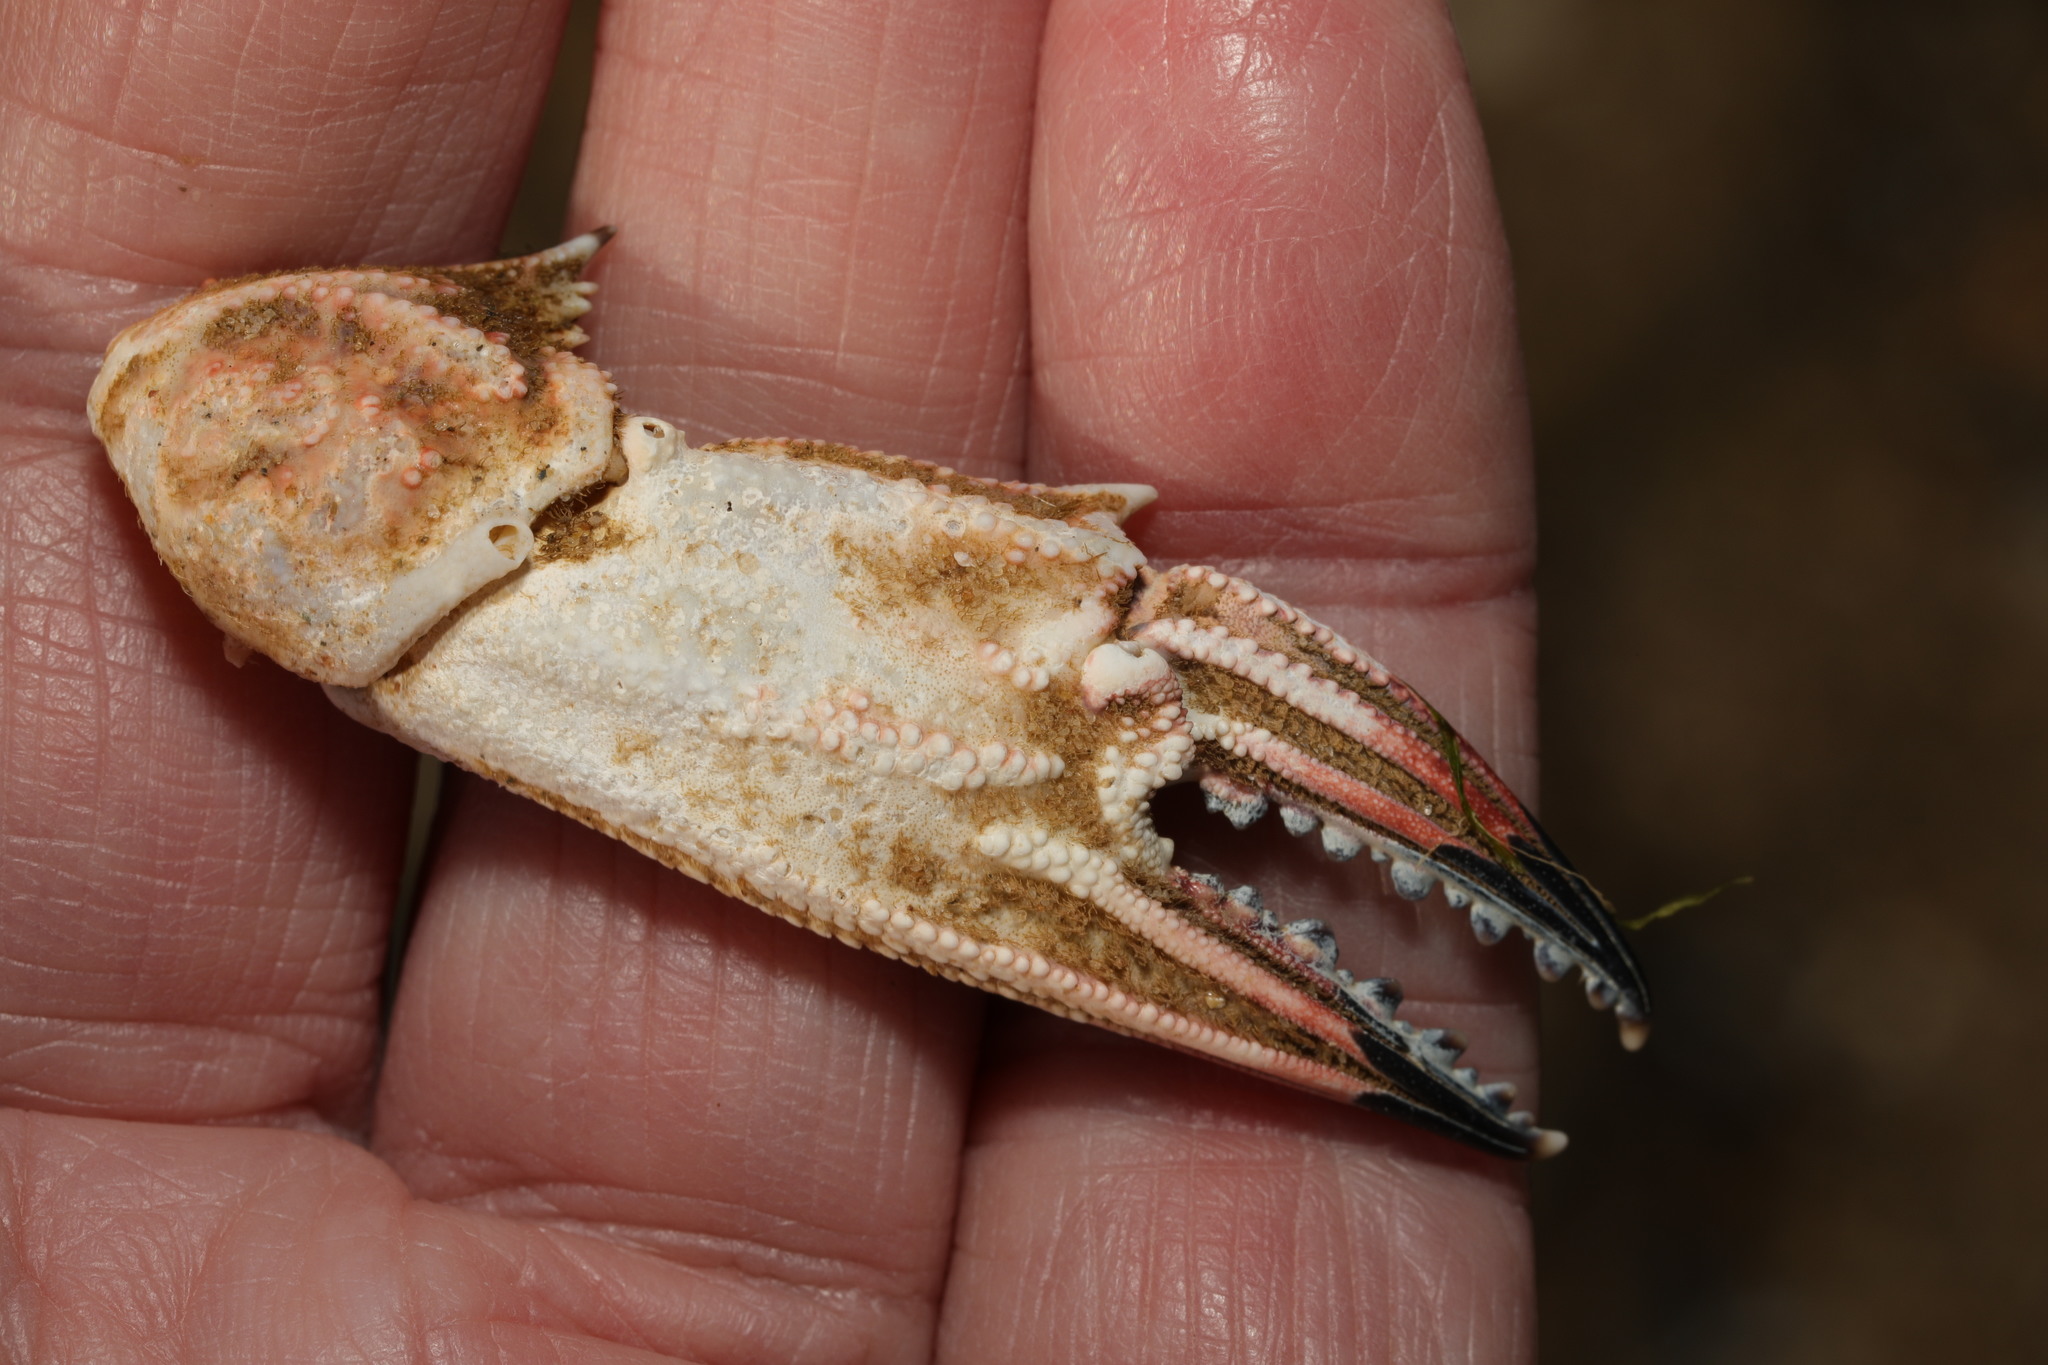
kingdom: Animalia
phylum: Arthropoda
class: Malacostraca
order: Decapoda
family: Polybiidae
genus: Necora
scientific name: Necora puber
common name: Velvet swimming crab
